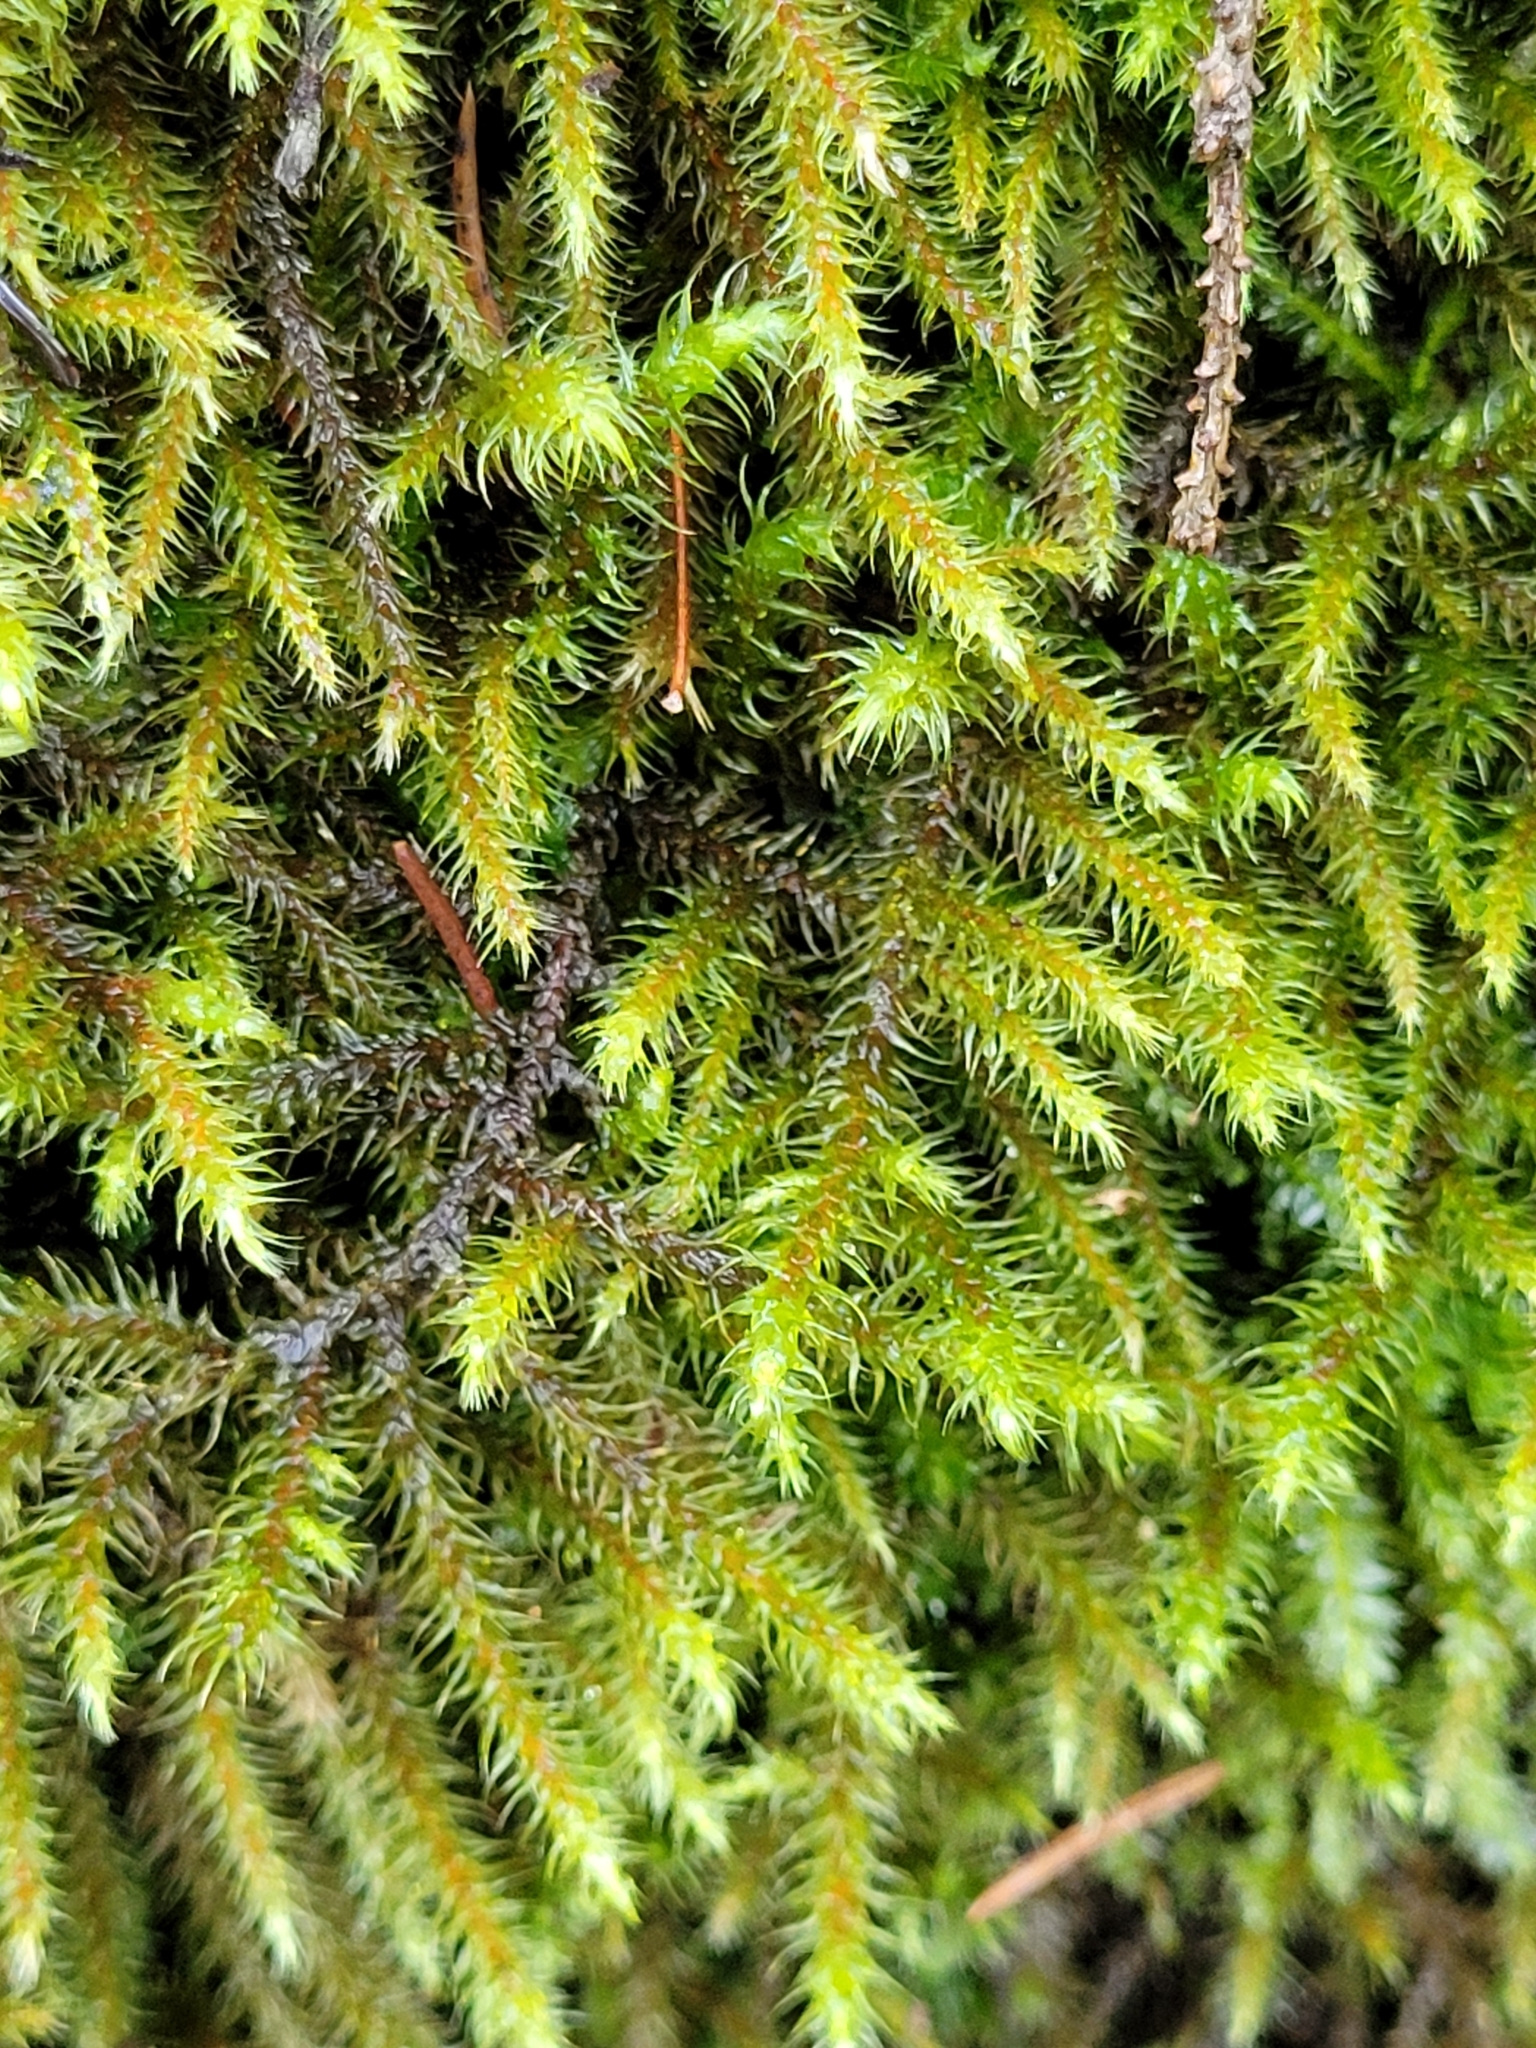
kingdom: Plantae
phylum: Bryophyta
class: Bryopsida
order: Hypnales
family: Hylocomiaceae
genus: Rhytidiadelphus
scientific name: Rhytidiadelphus loreus
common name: Lanky moss
